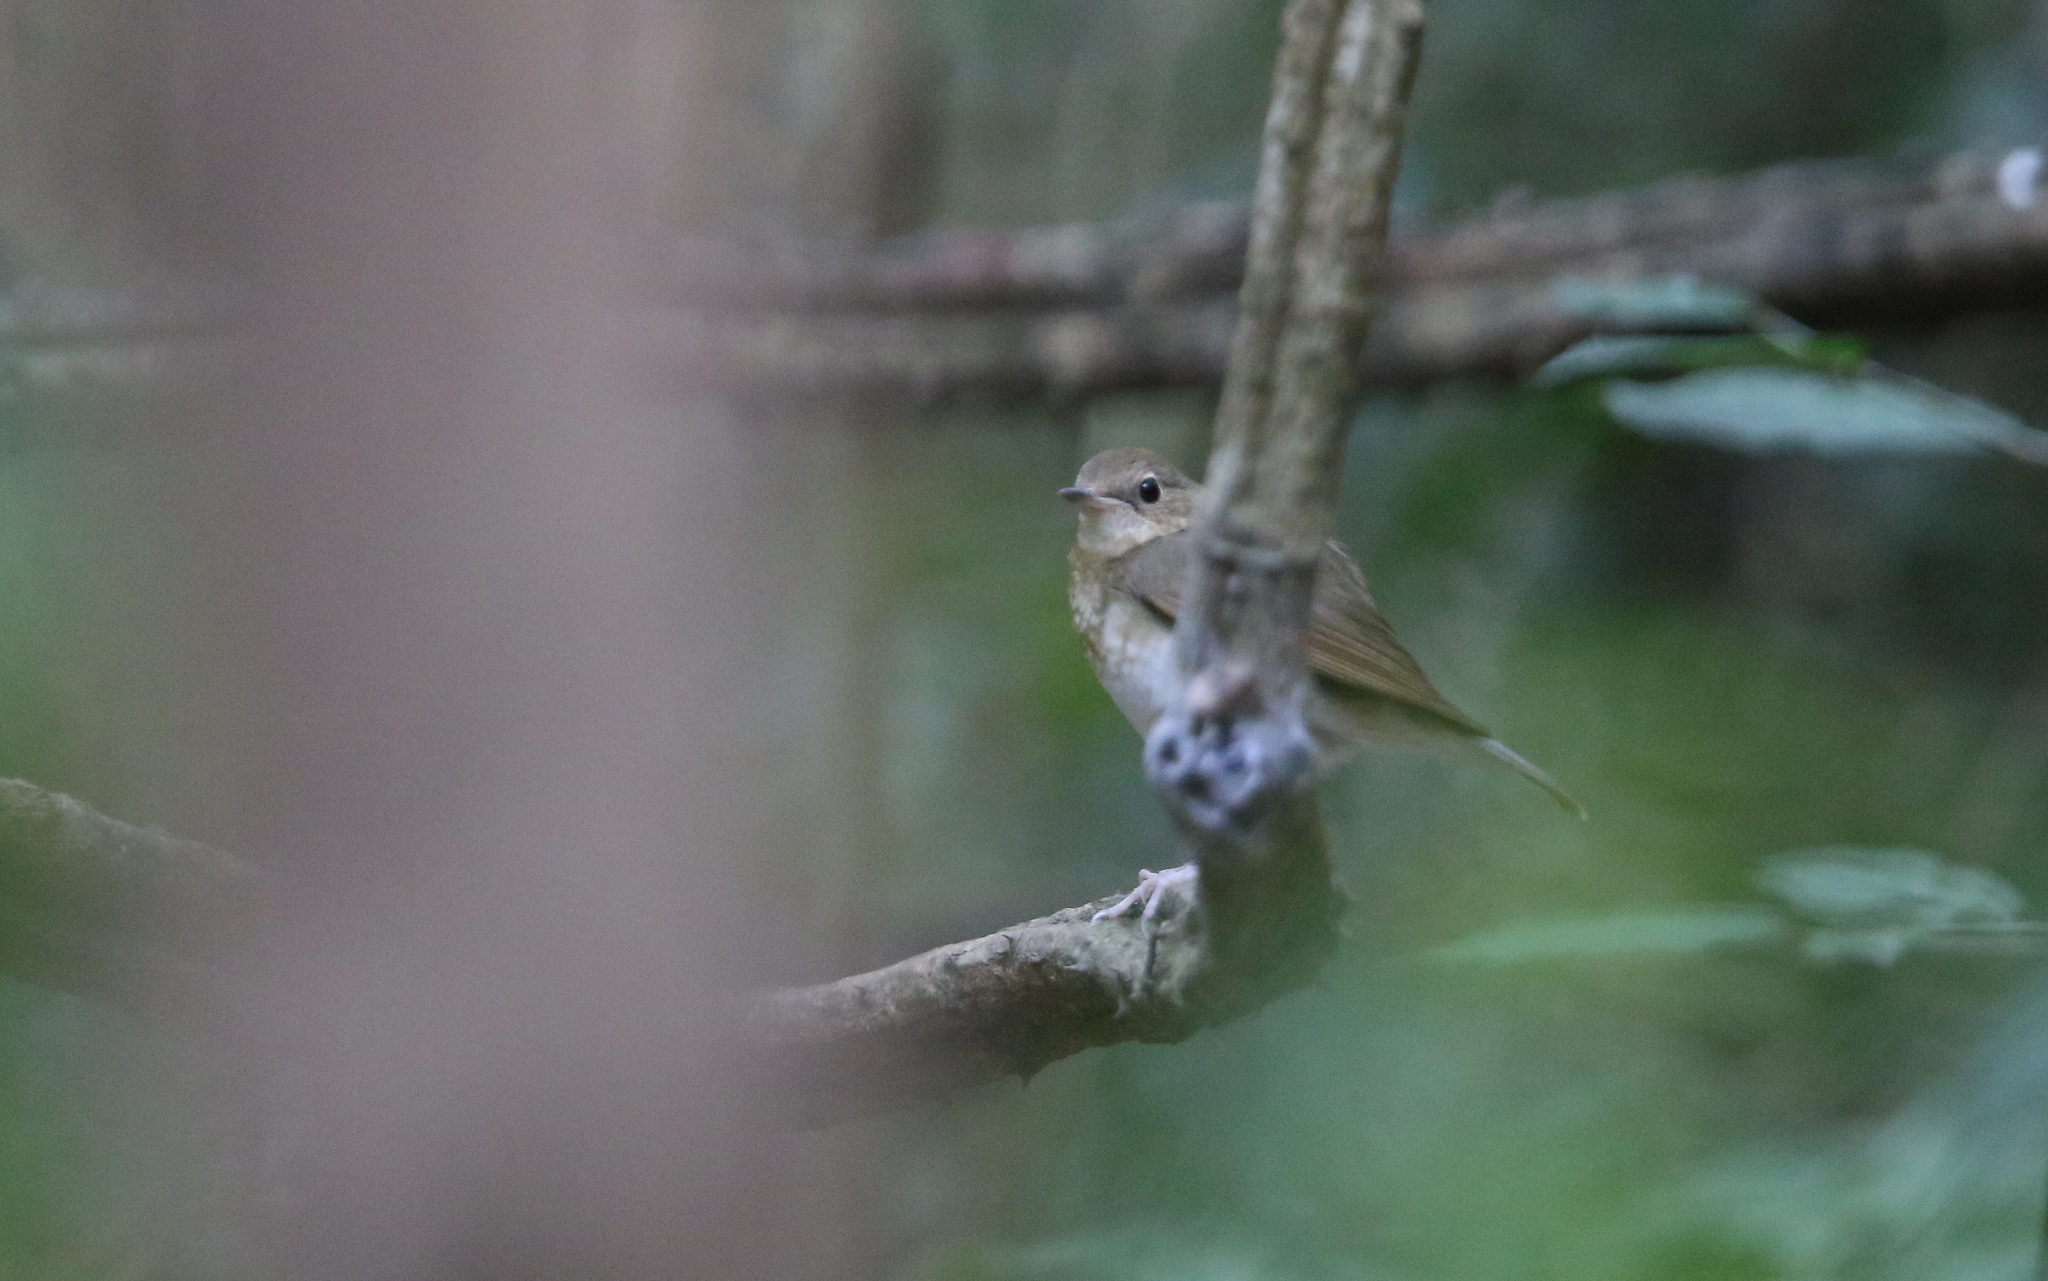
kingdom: Animalia
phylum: Chordata
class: Aves
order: Passeriformes
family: Muscicapidae
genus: Luscinia
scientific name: Luscinia cyane
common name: Siberian blue robin
